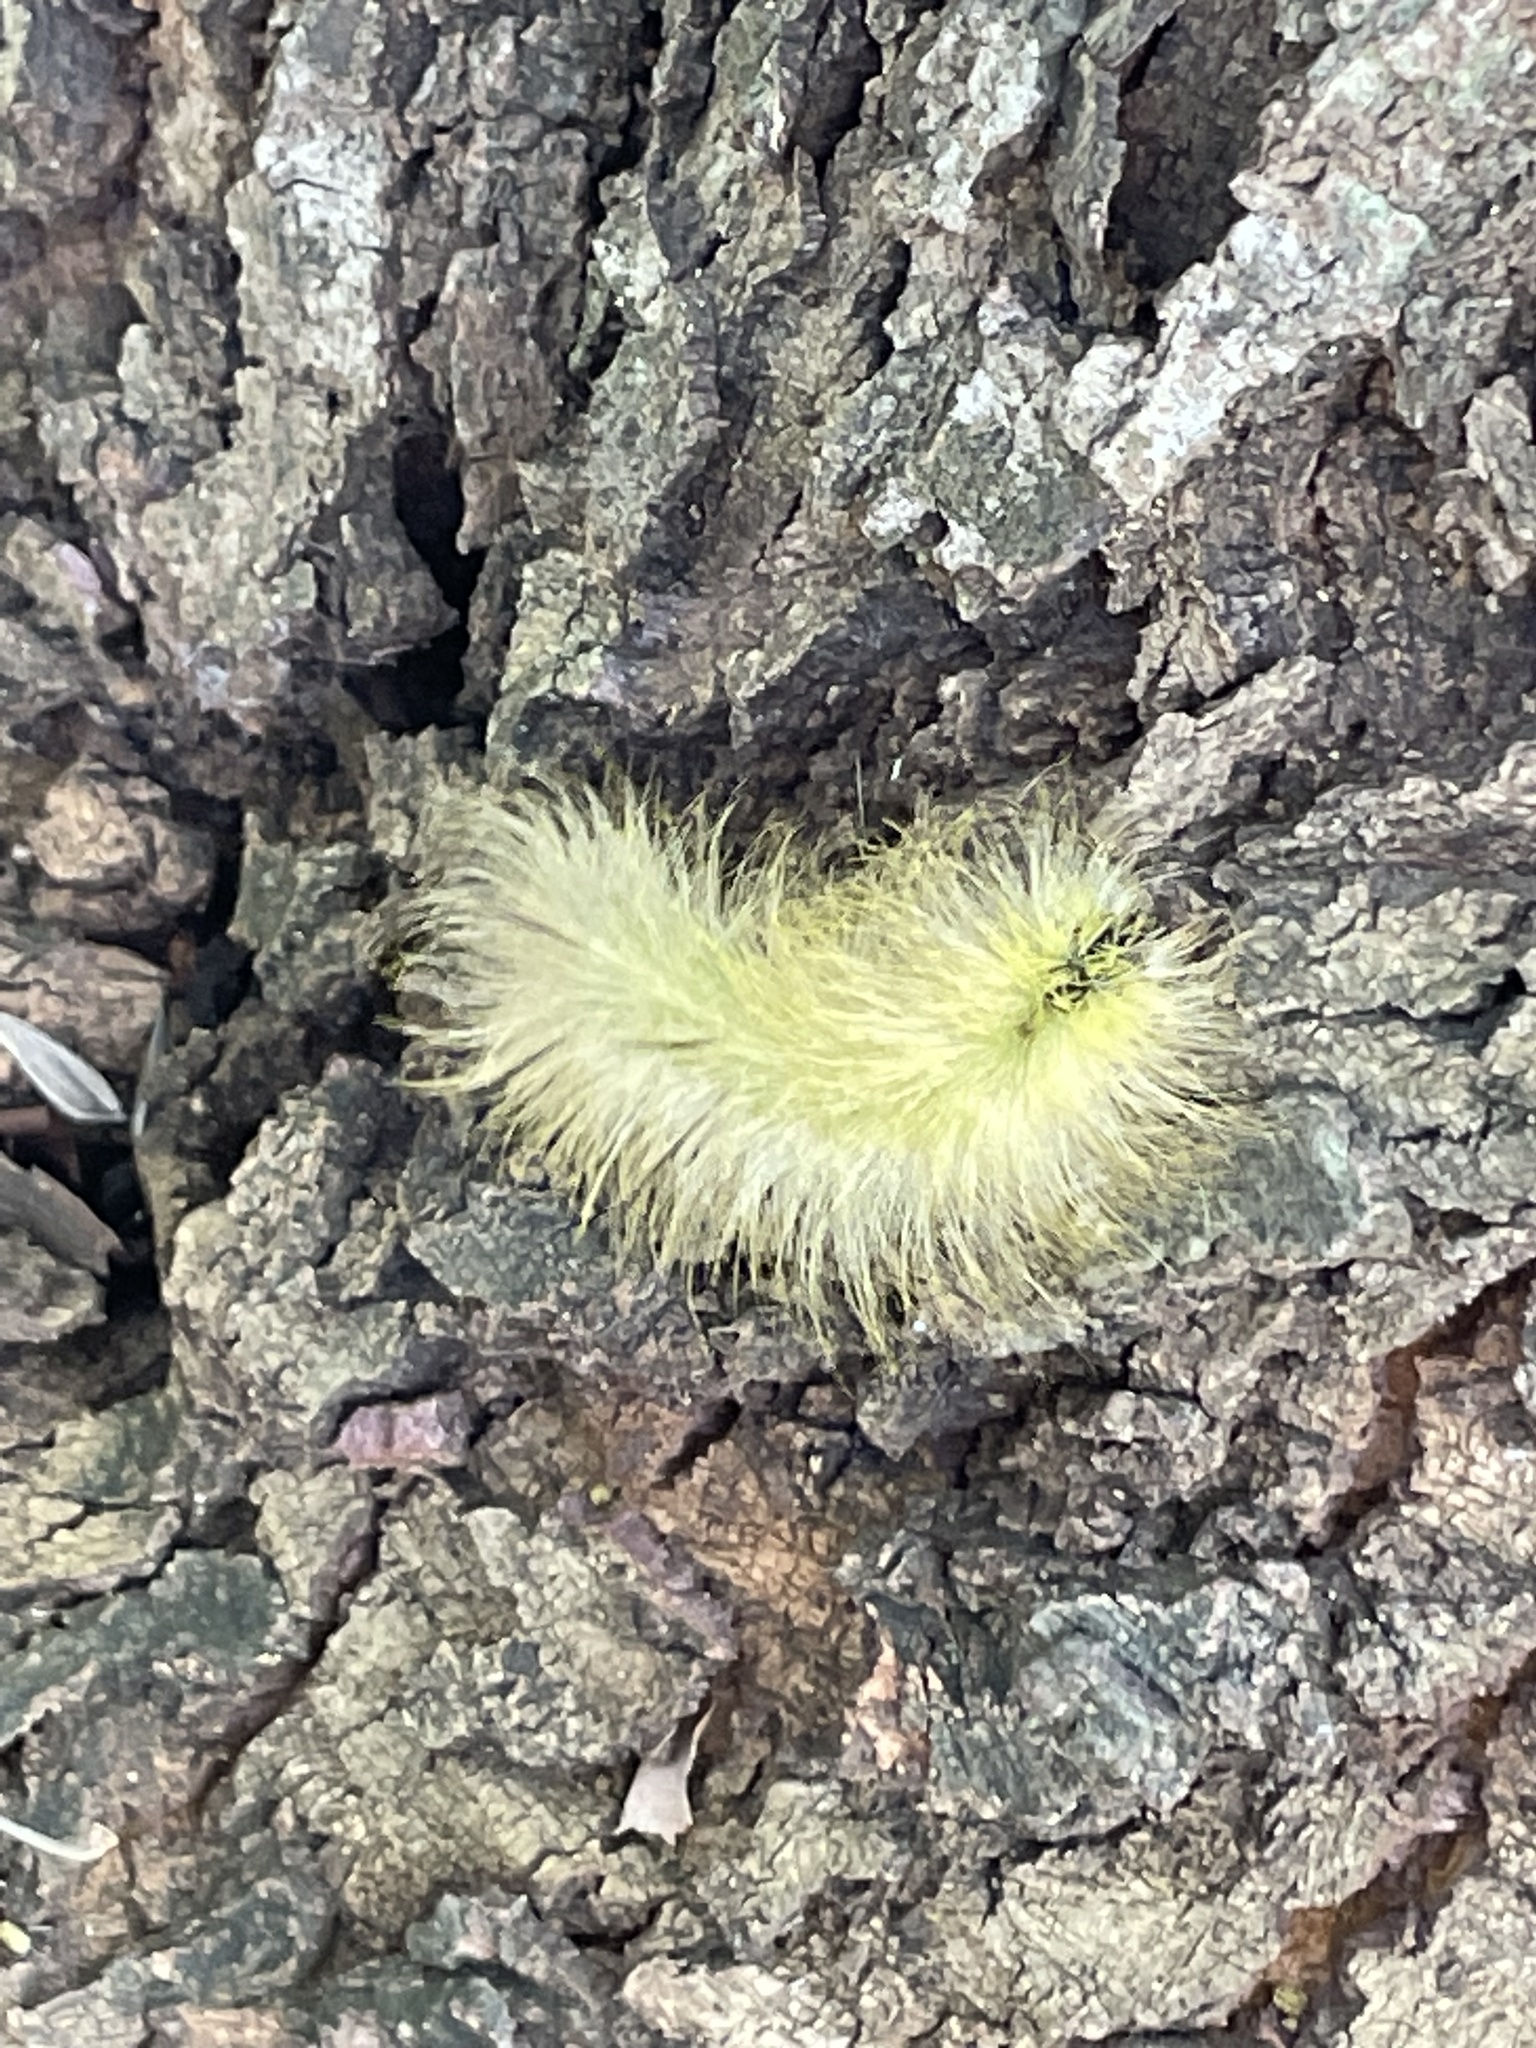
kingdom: Animalia
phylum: Arthropoda
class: Insecta
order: Lepidoptera
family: Noctuidae
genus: Acronicta
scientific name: Acronicta americana
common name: American dagger
